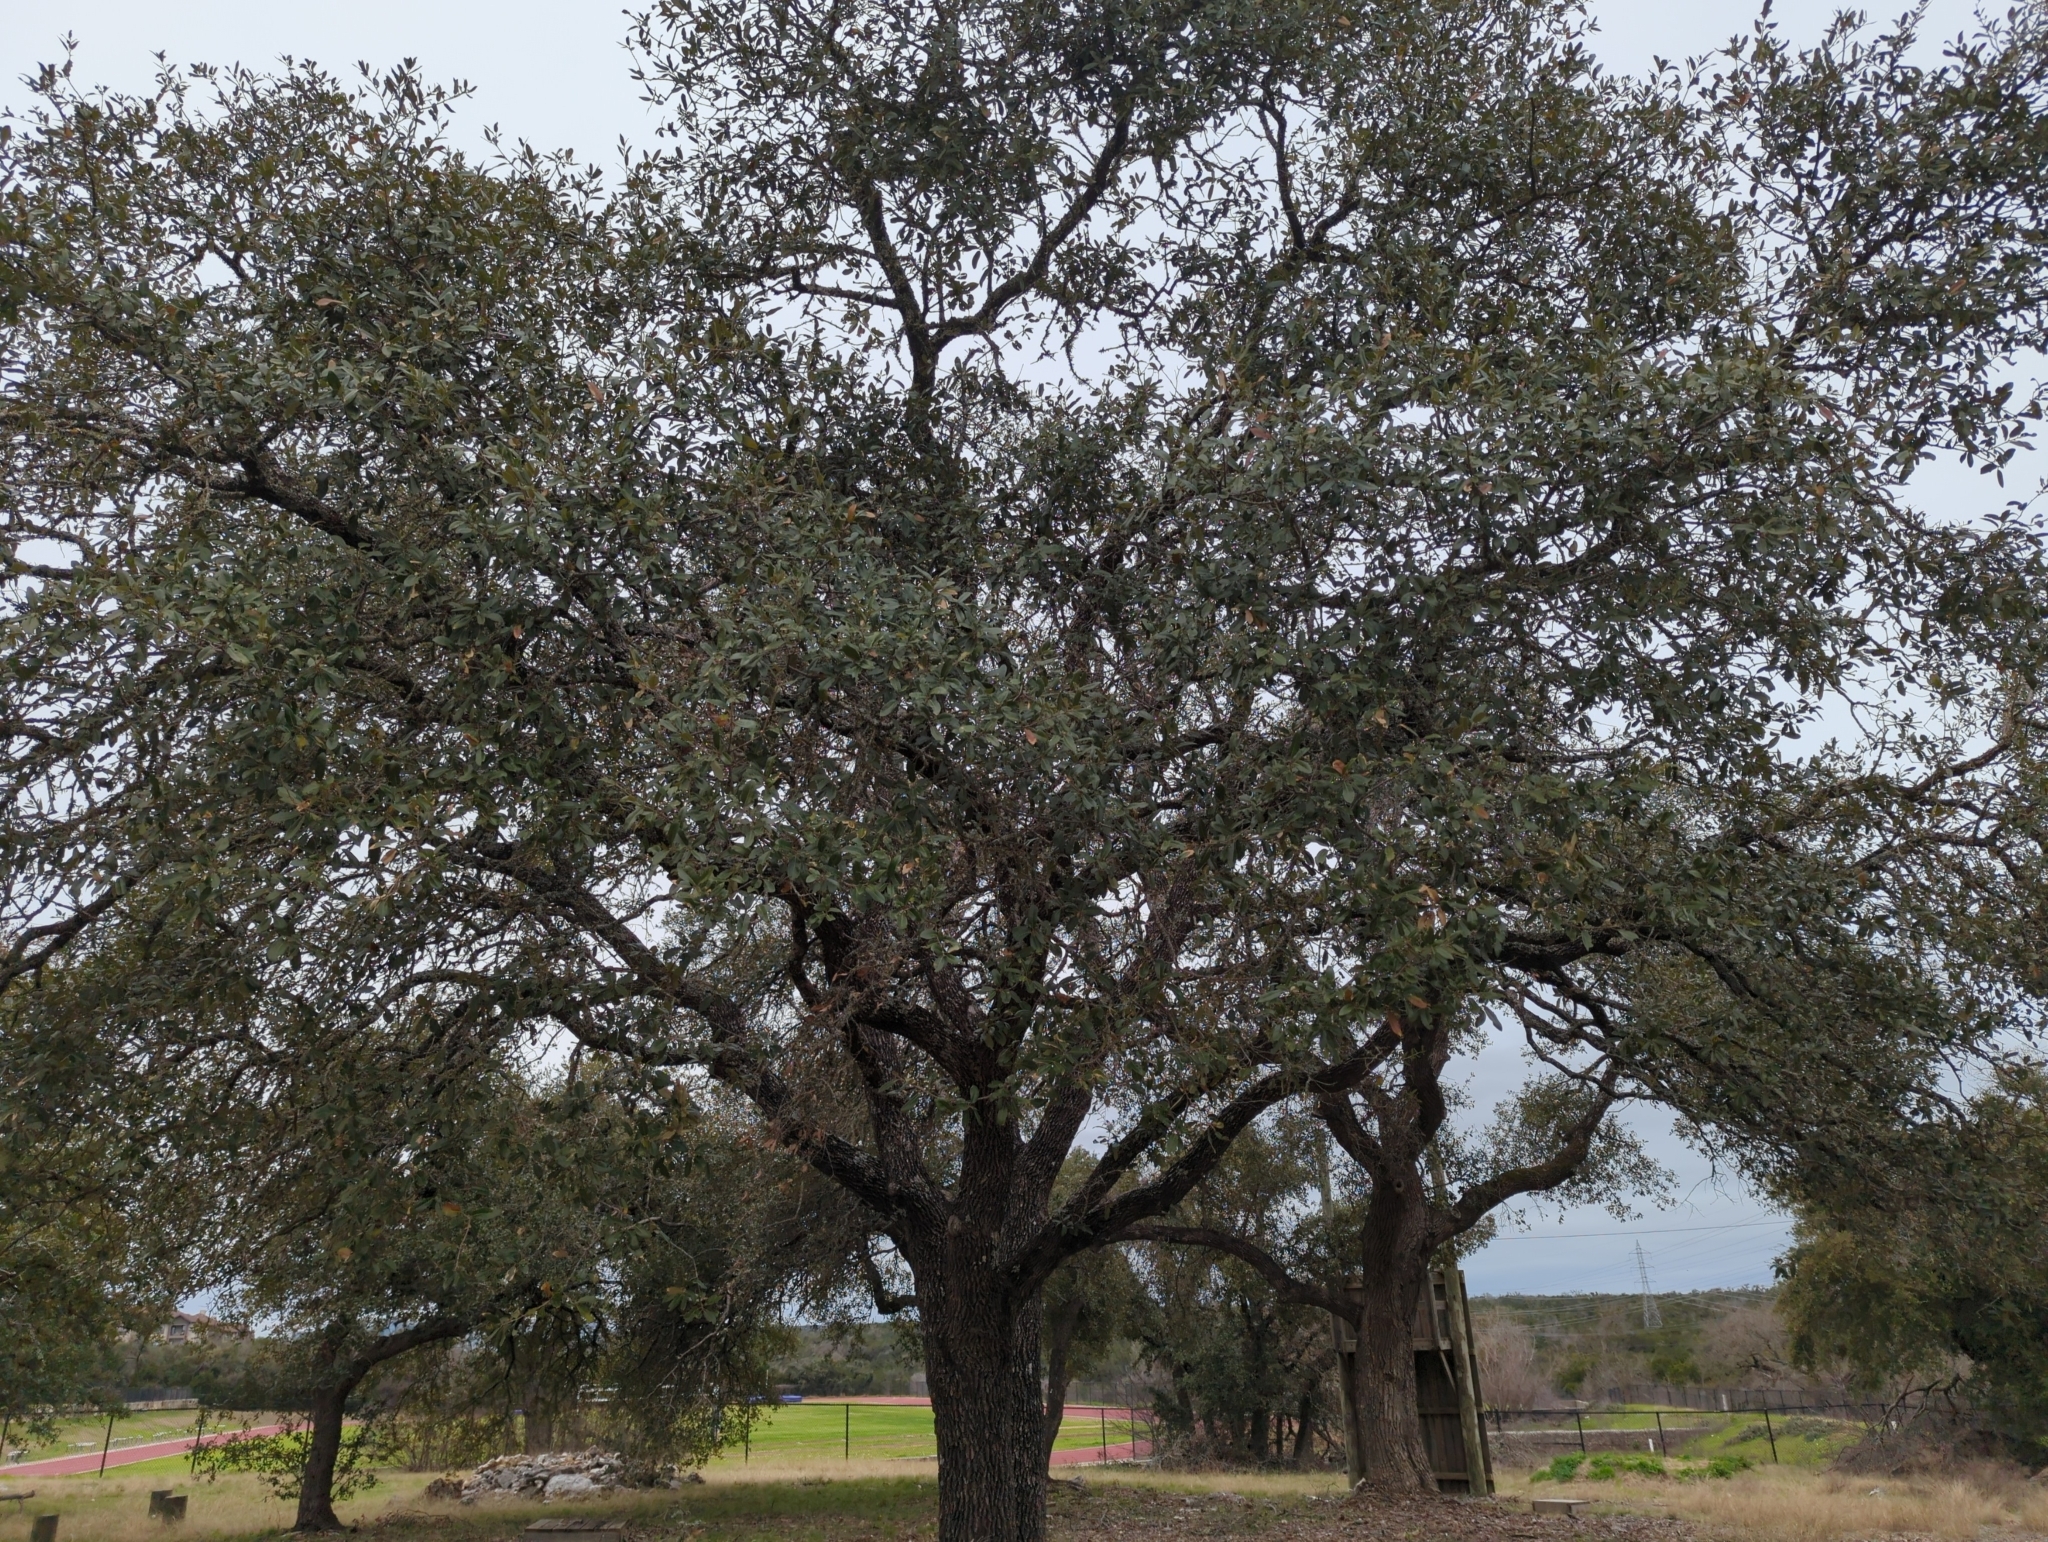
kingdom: Plantae
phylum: Tracheophyta
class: Magnoliopsida
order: Fagales
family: Fagaceae
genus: Quercus
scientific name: Quercus fusiformis
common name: Texas live oak
